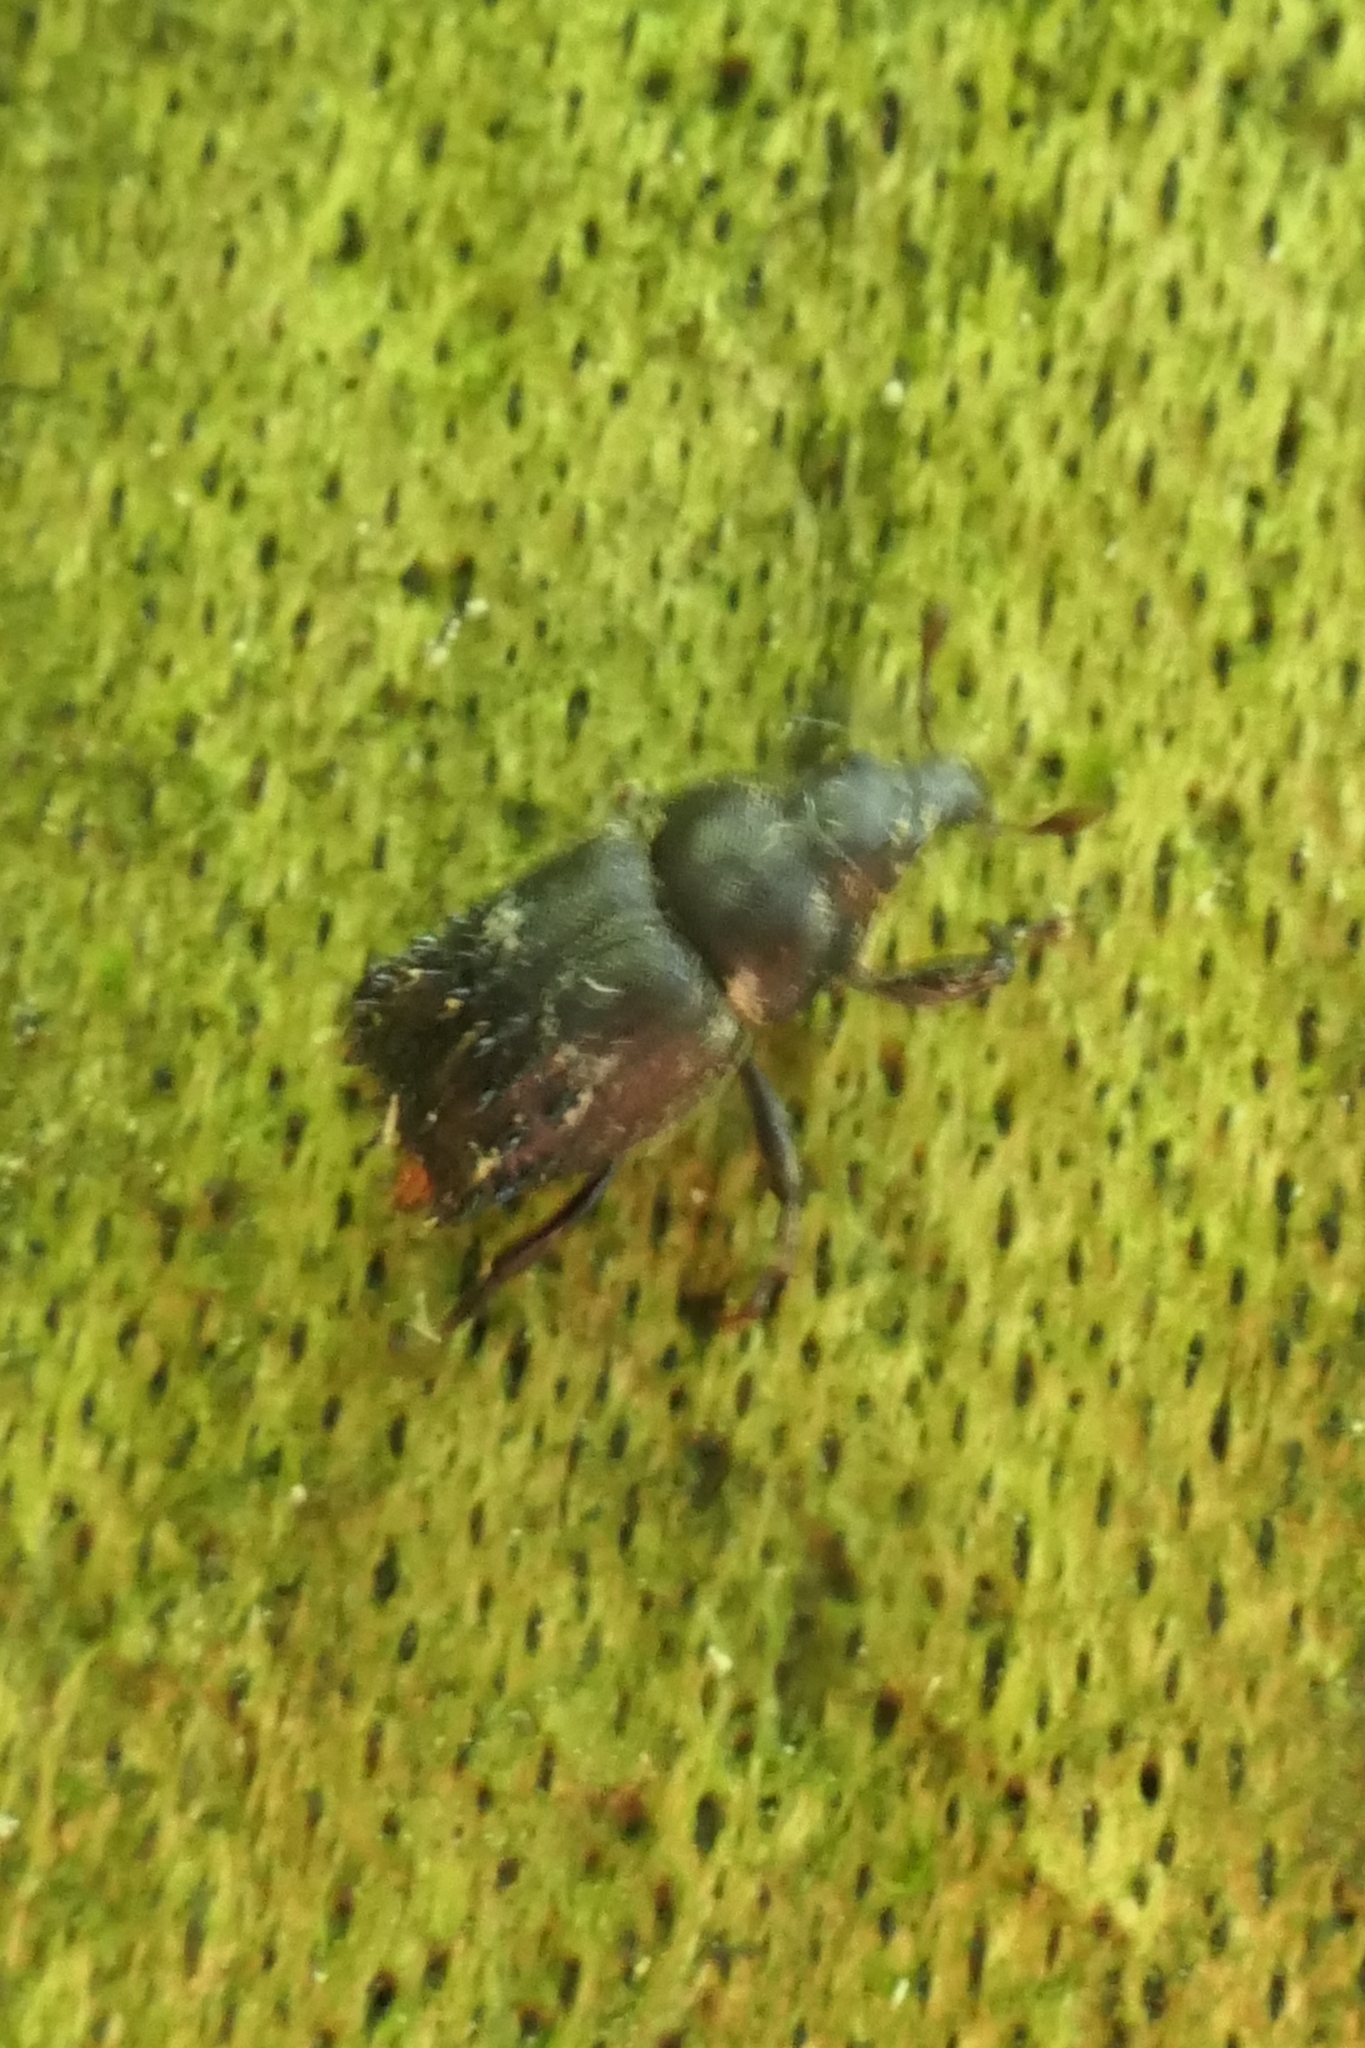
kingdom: Animalia
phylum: Arthropoda
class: Insecta
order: Coleoptera
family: Curculionidae
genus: Psepholax
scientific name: Psepholax coronatus
